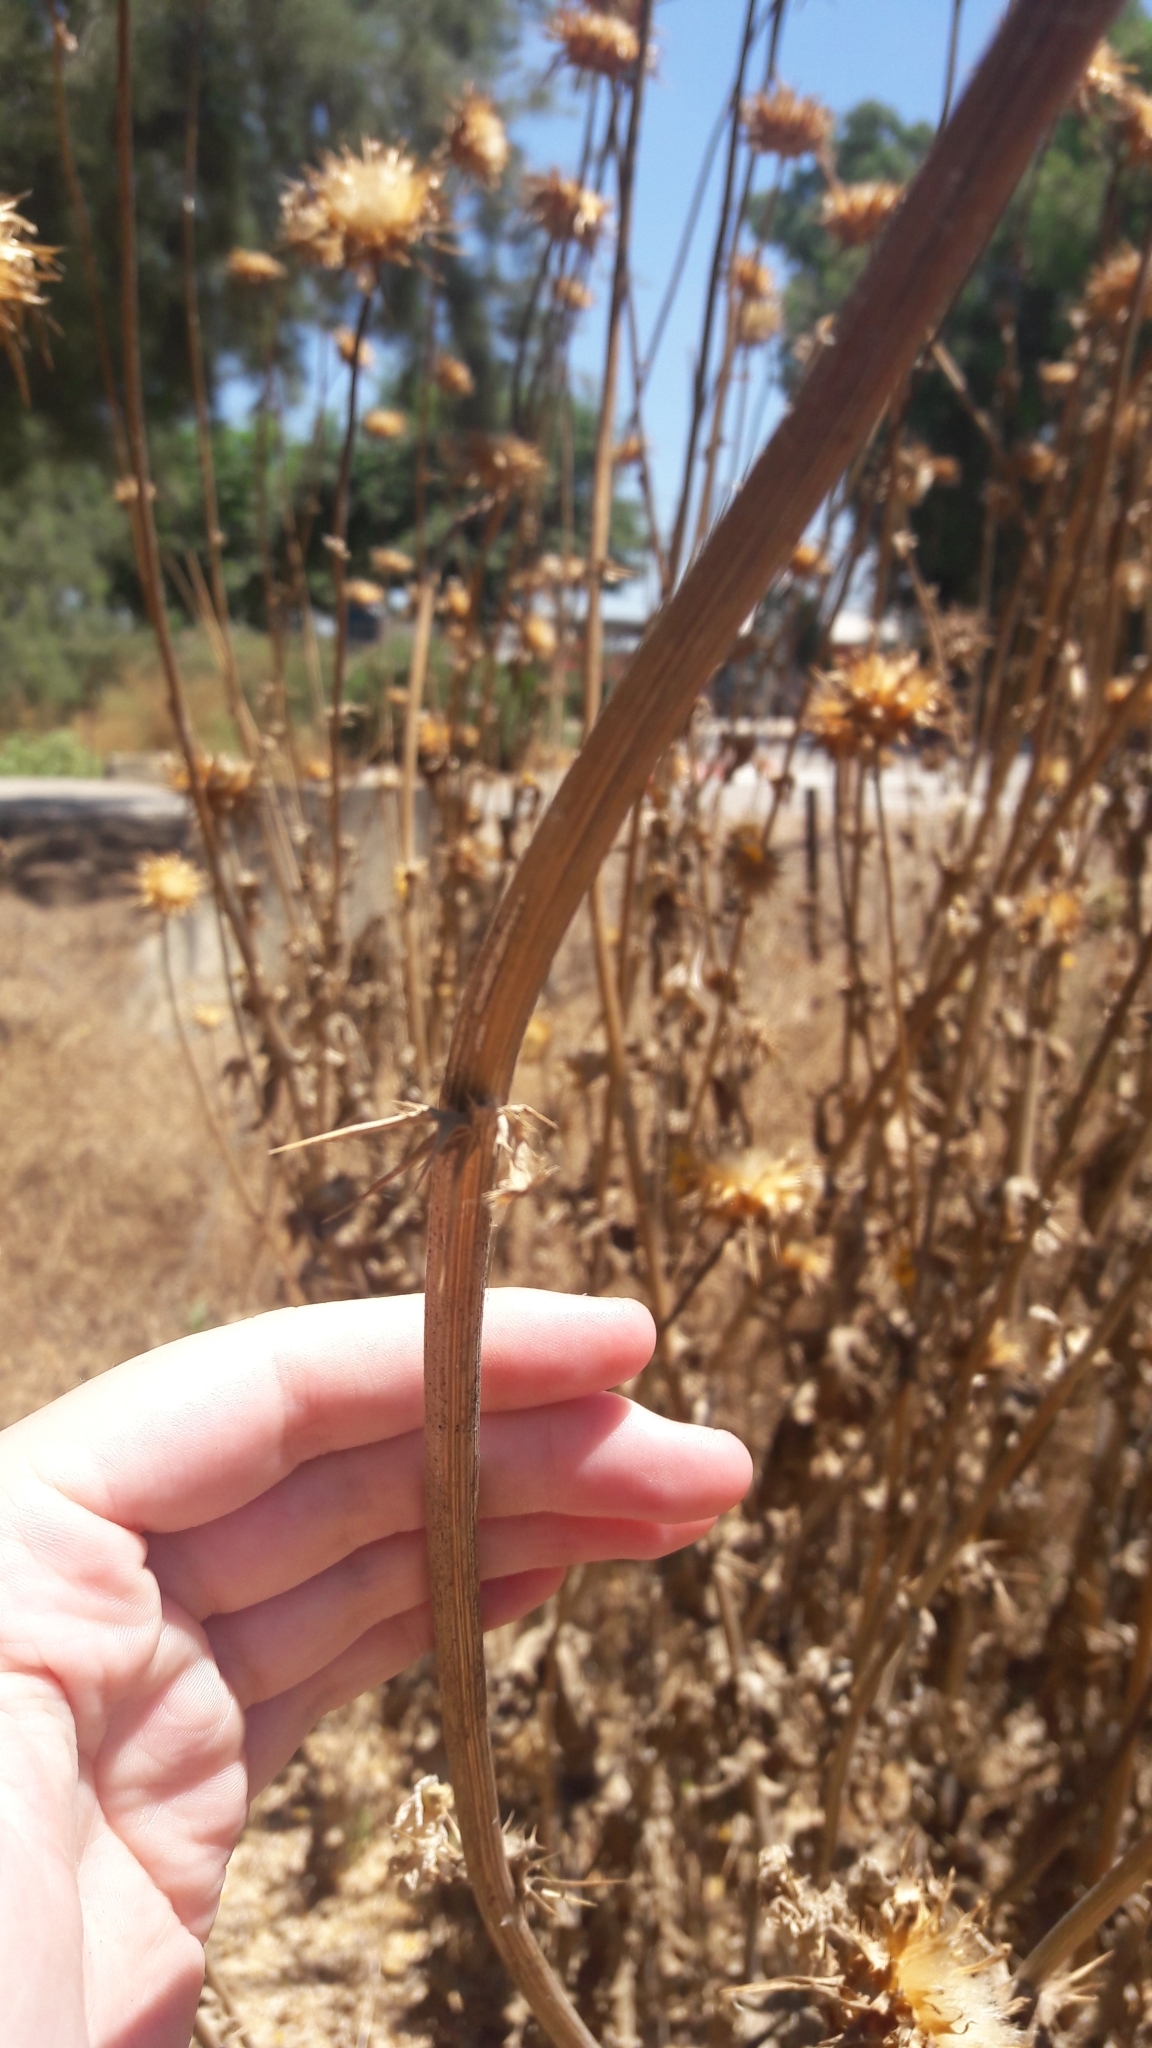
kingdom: Plantae
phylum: Tracheophyta
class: Magnoliopsida
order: Asterales
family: Asteraceae
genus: Silybum
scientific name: Silybum marianum
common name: Milk thistle
